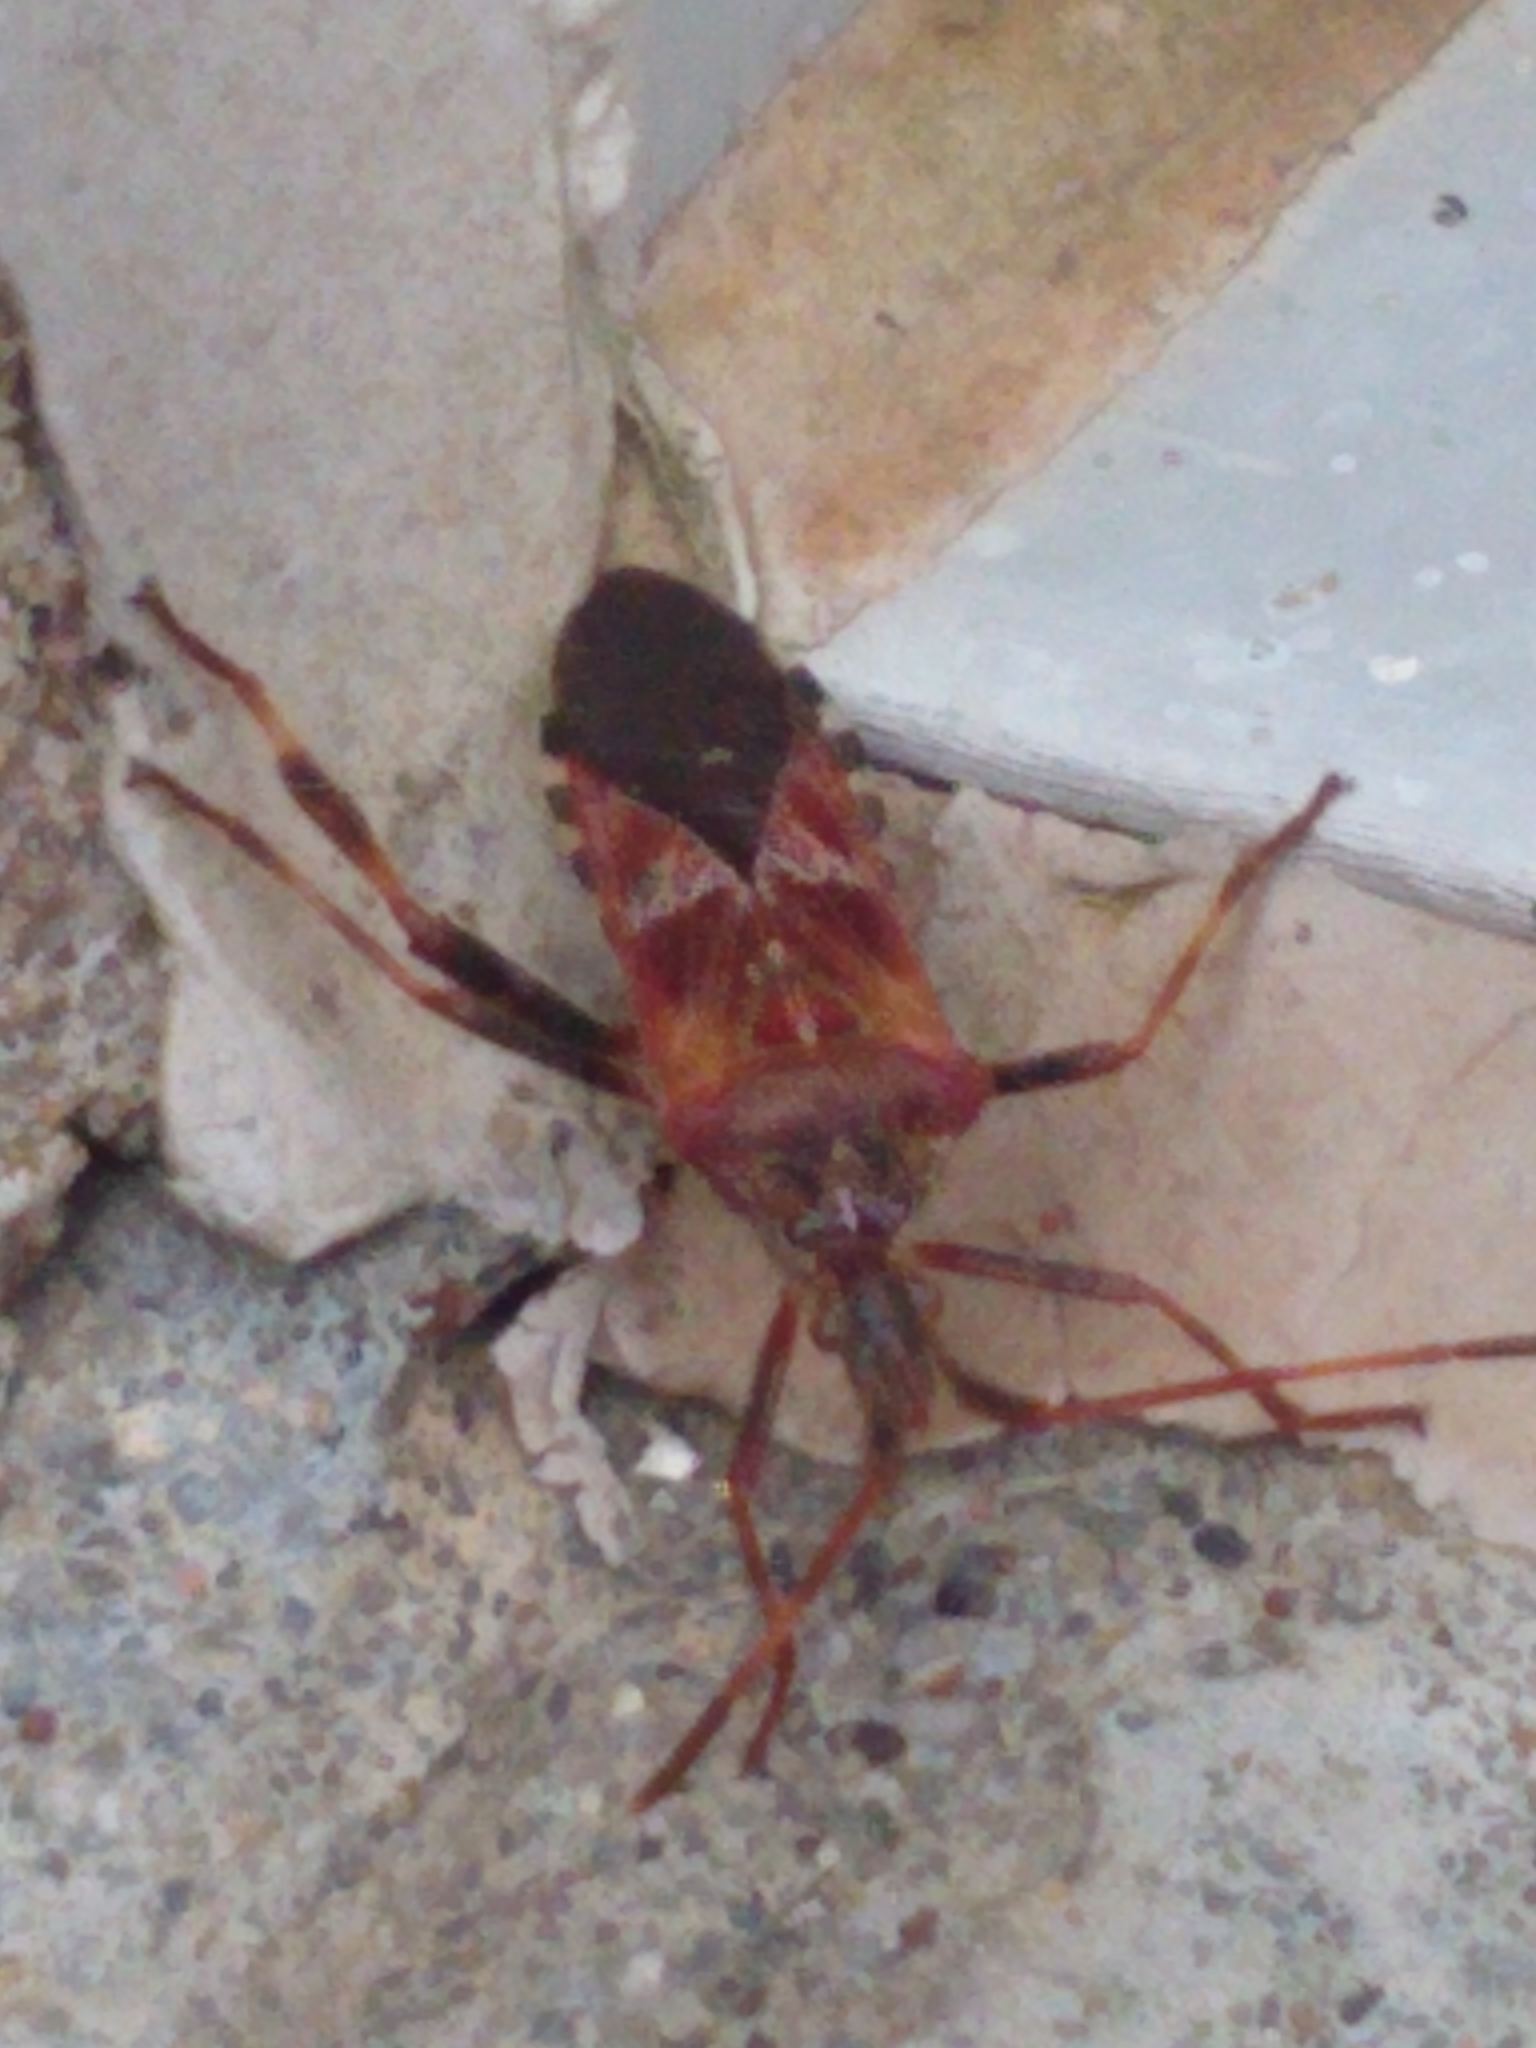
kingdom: Animalia
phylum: Arthropoda
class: Insecta
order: Hemiptera
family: Coreidae
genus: Leptoglossus
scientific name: Leptoglossus occidentalis
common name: Western conifer-seed bug
